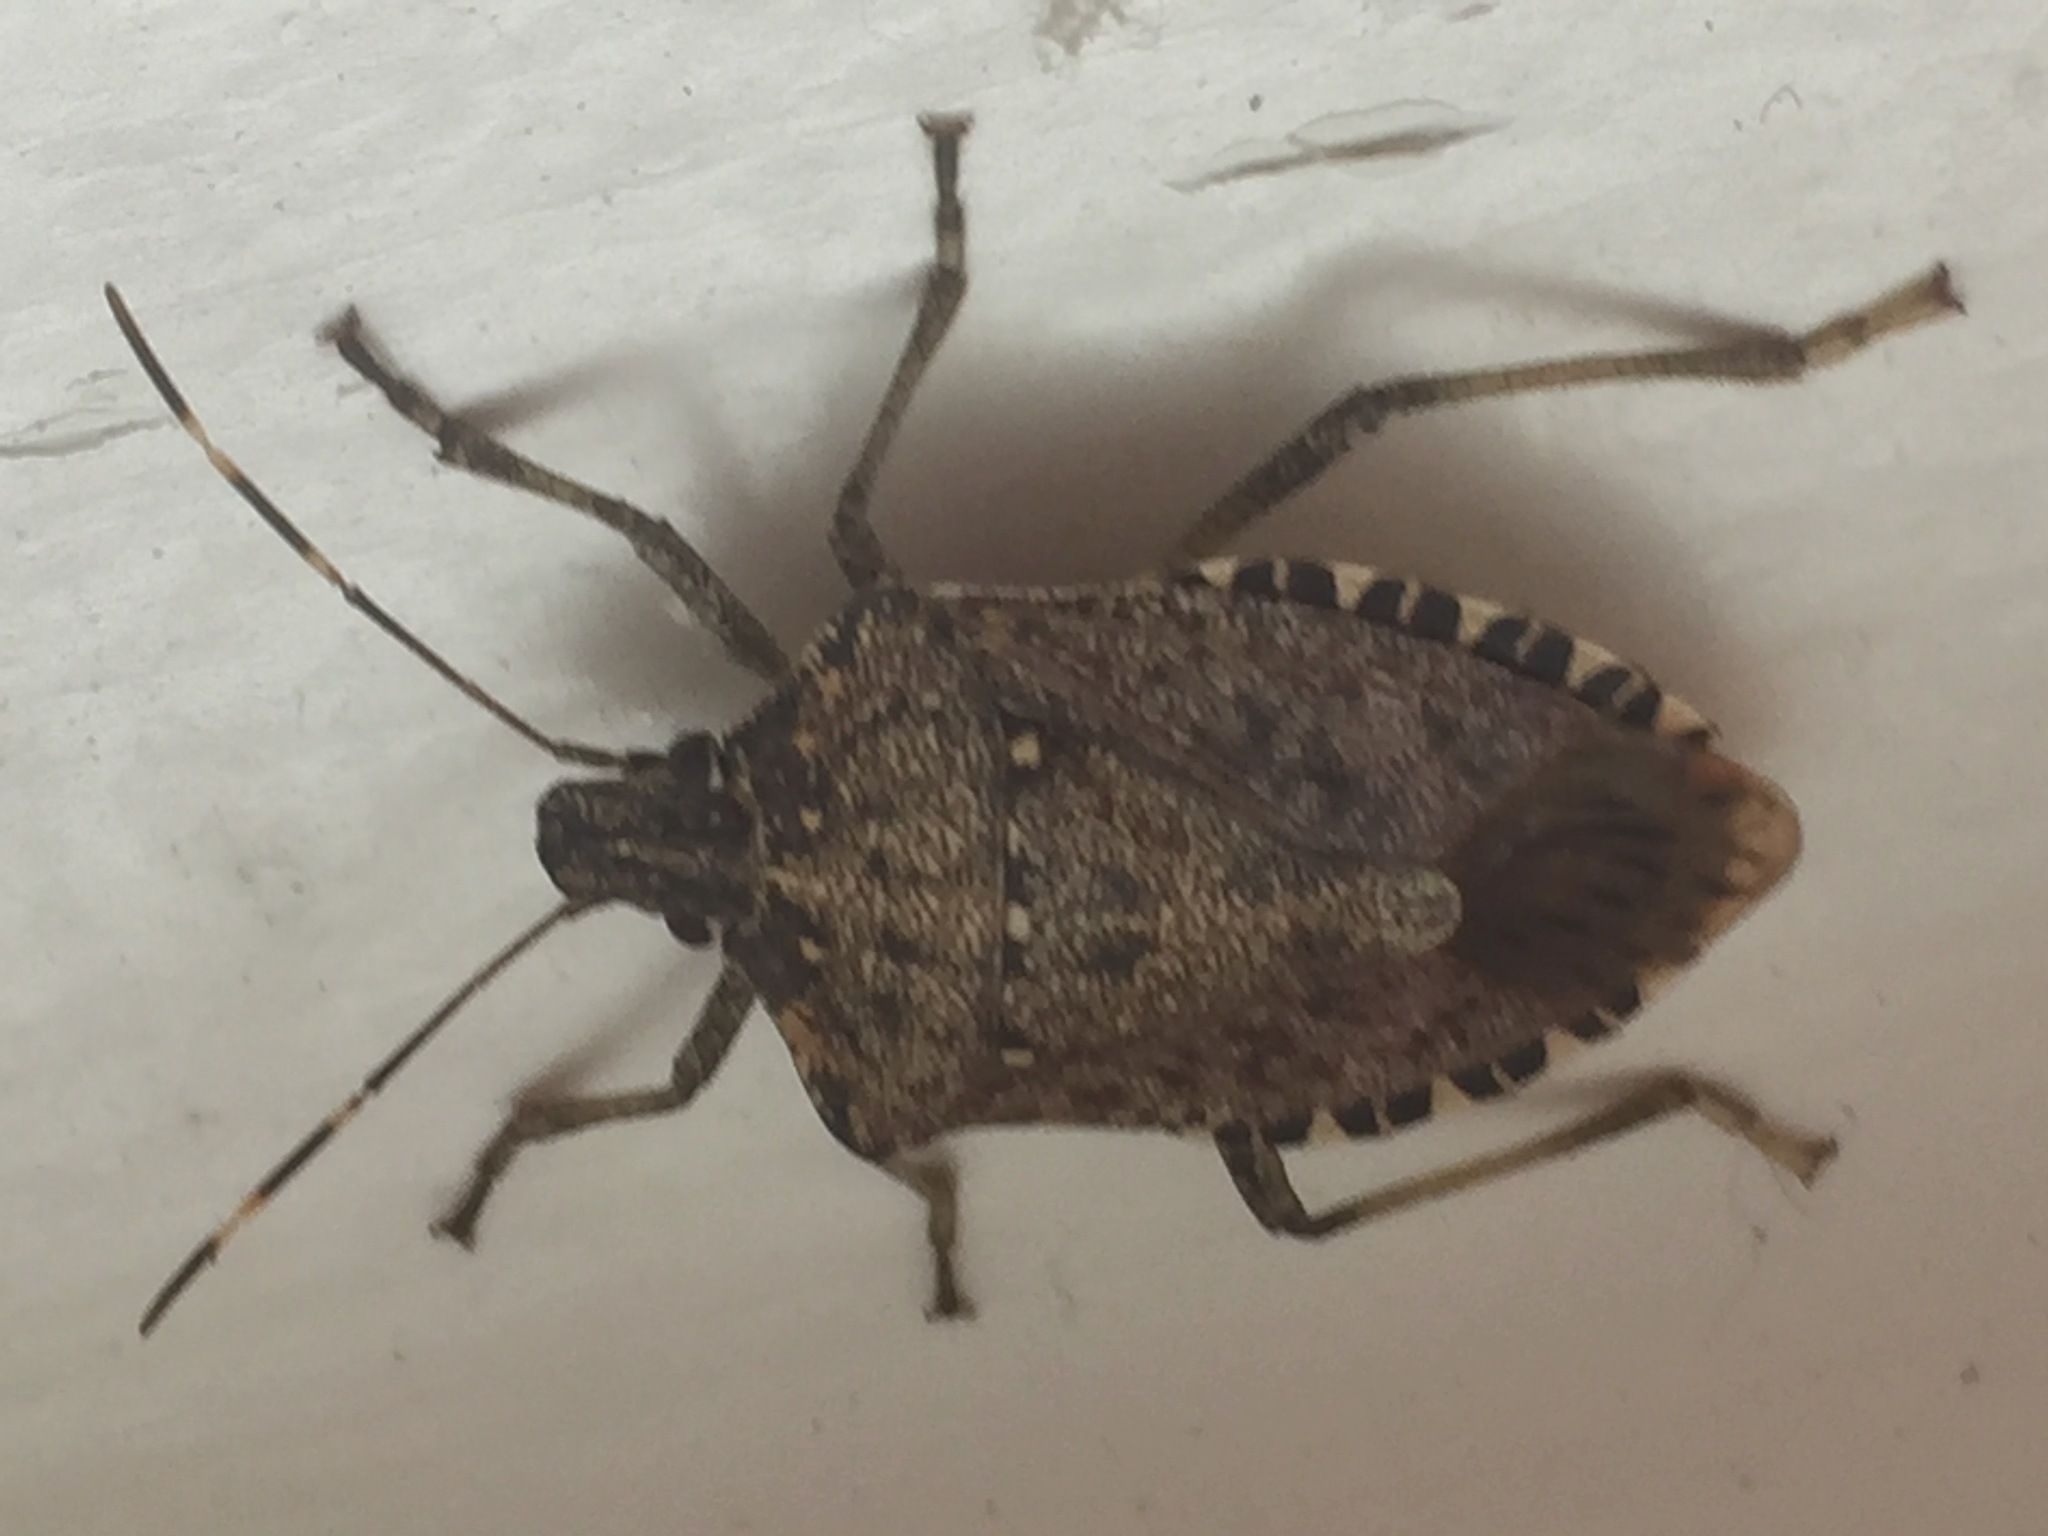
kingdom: Animalia
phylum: Arthropoda
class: Insecta
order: Hemiptera
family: Pentatomidae
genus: Halyomorpha
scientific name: Halyomorpha halys
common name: Brown marmorated stink bug
